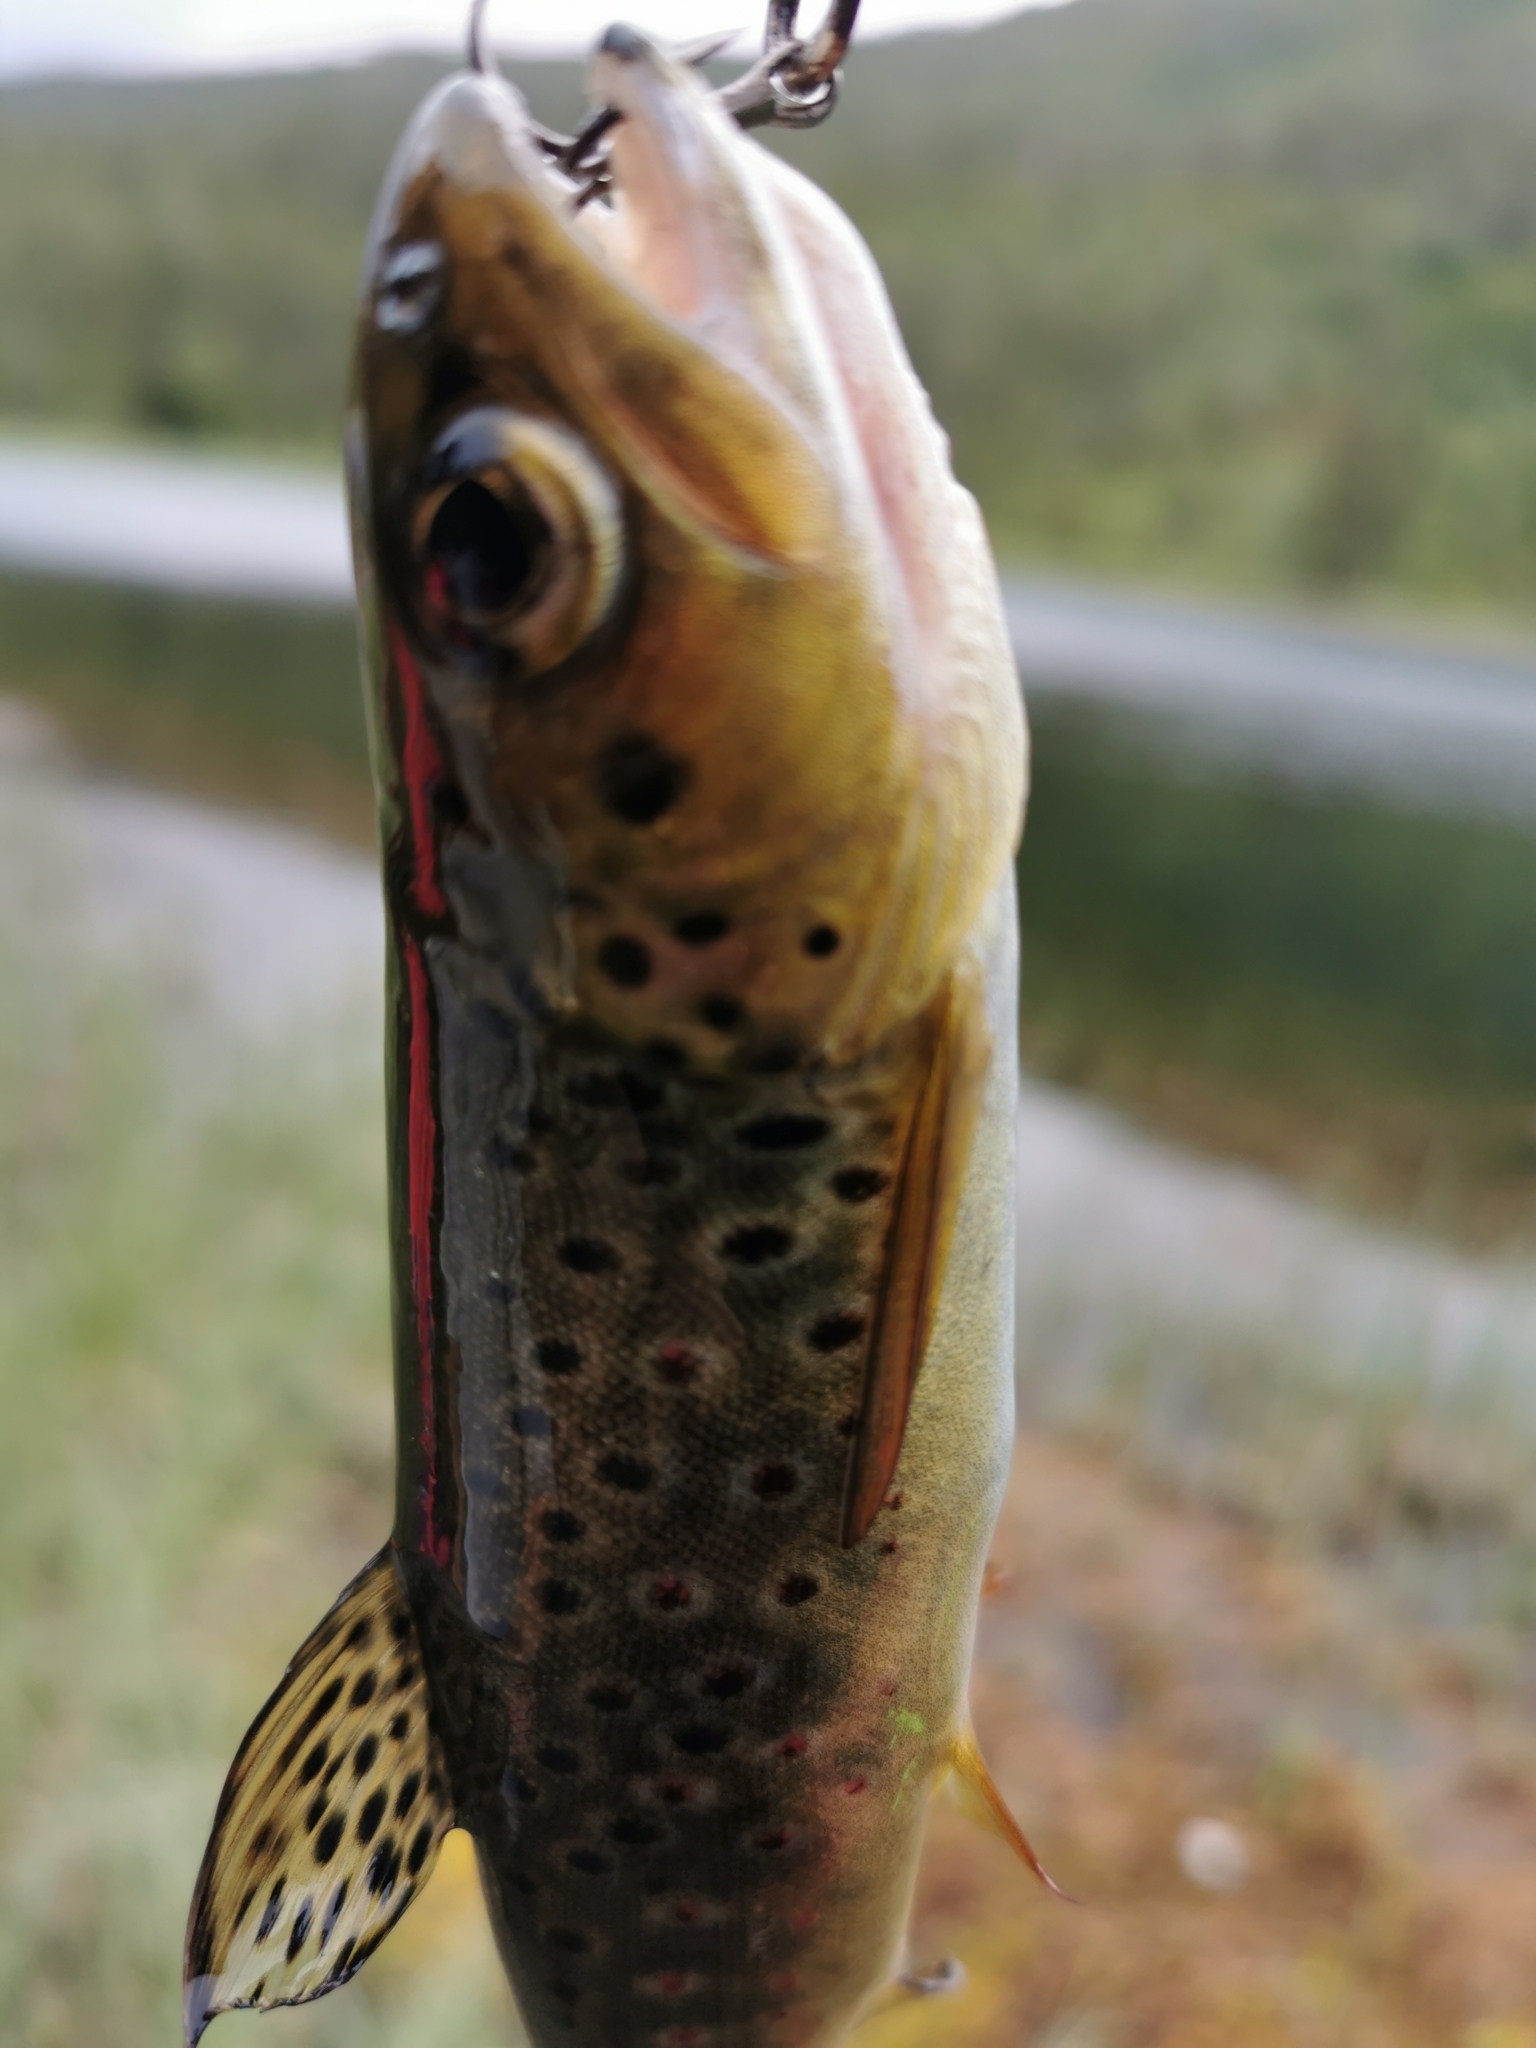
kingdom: Animalia
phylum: Chordata
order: Salmoniformes
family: Salmonidae
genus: Salmo
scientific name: Salmo trutta
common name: Brown trout
